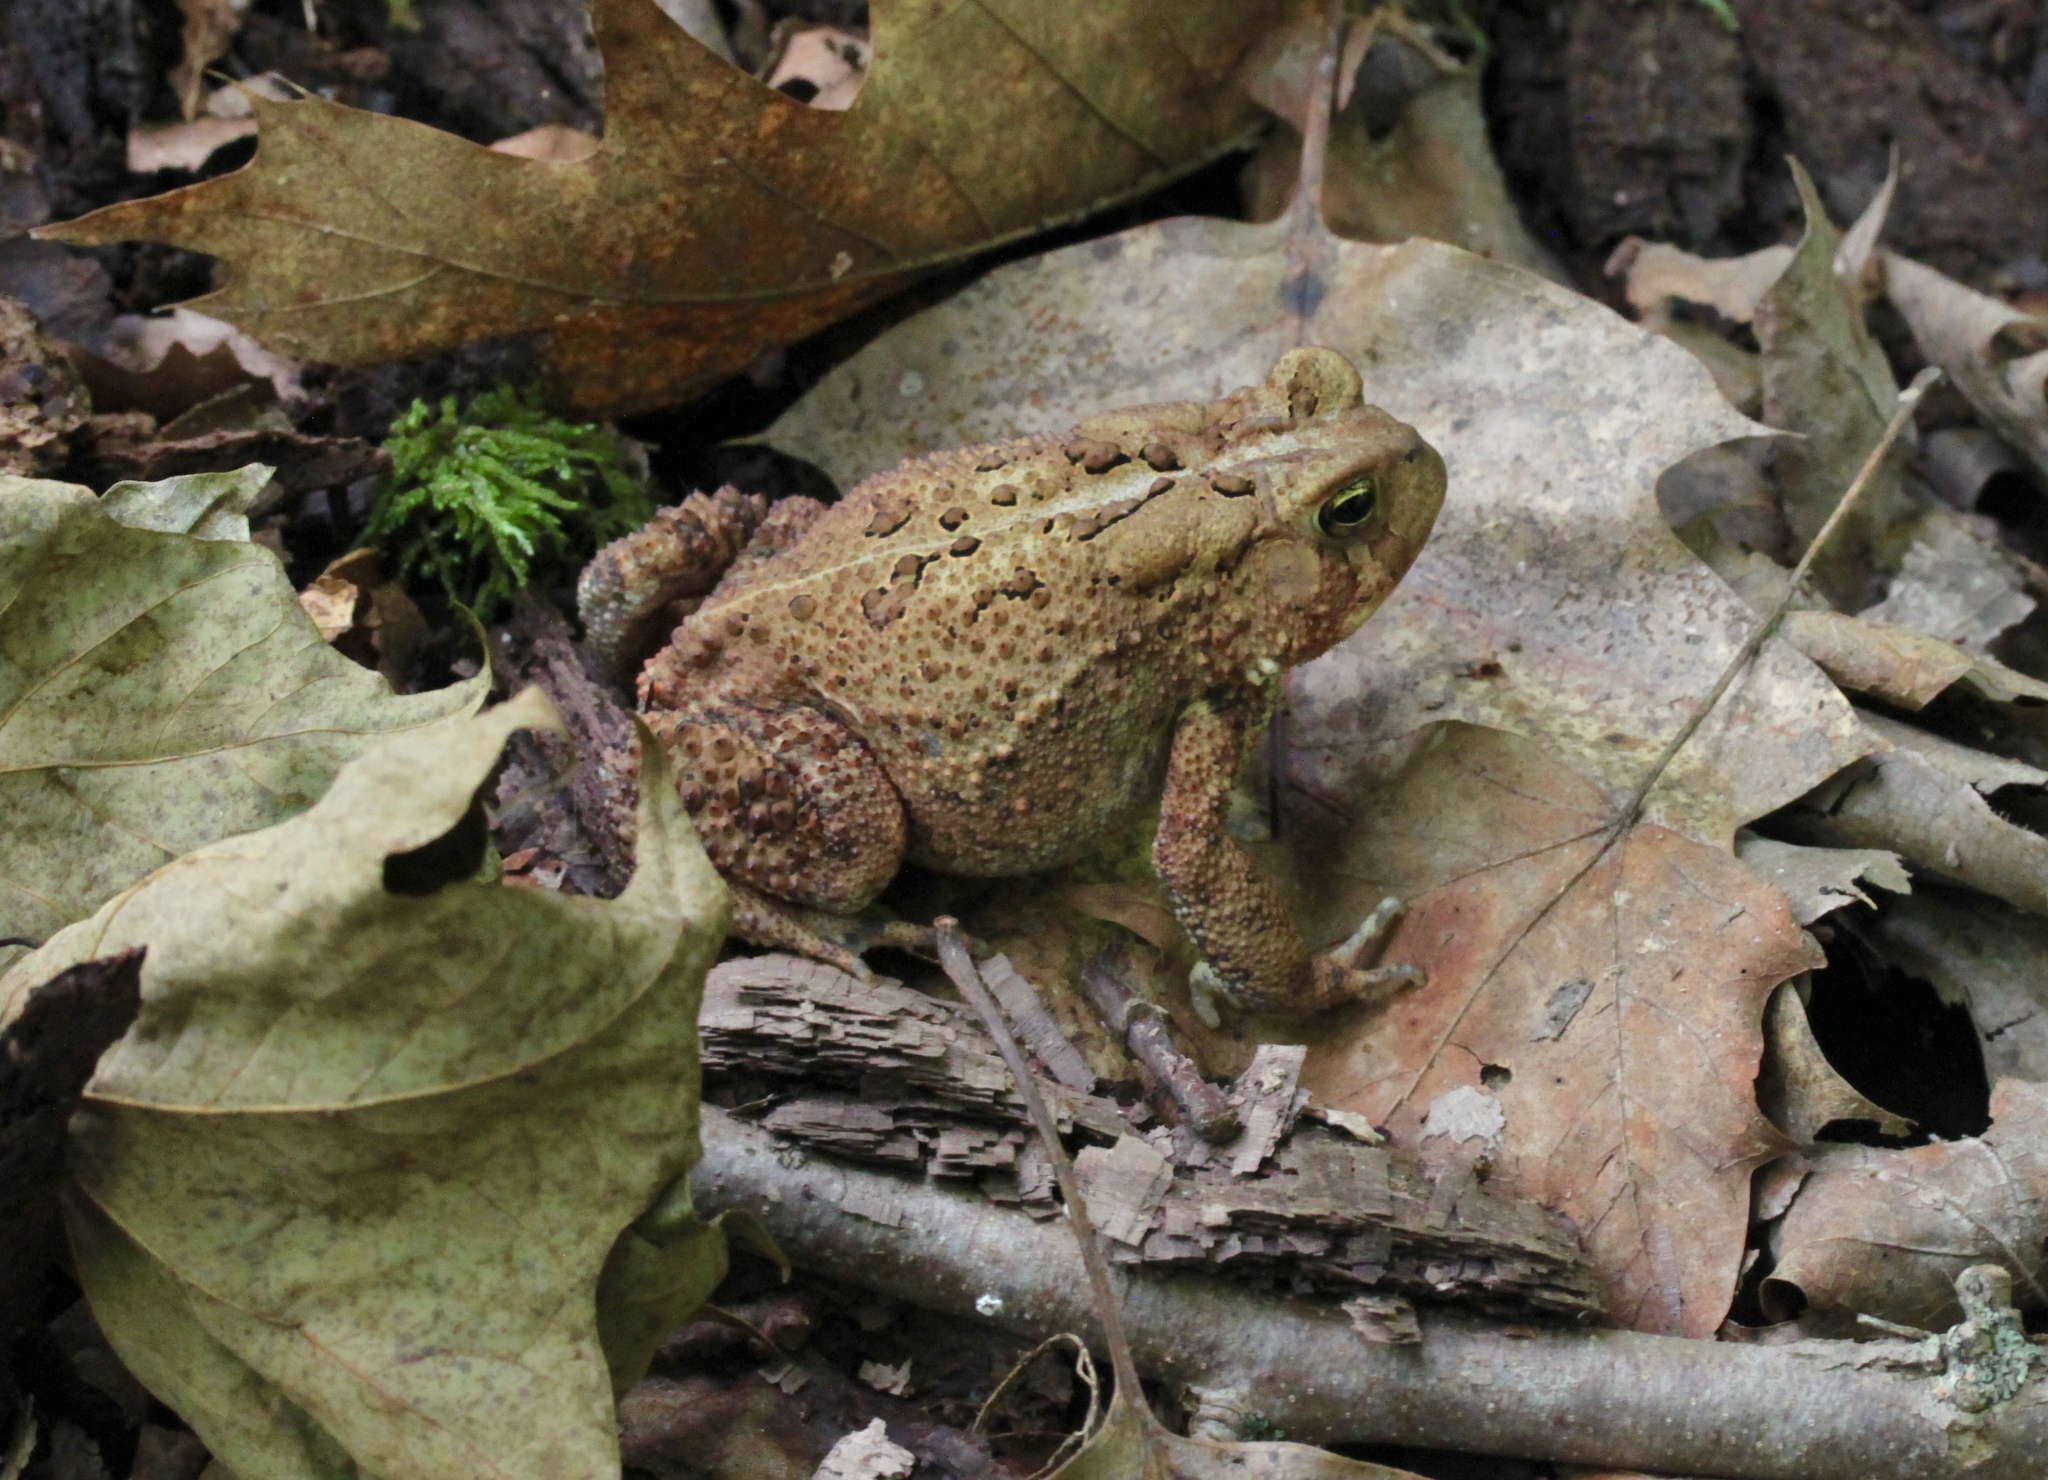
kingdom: Animalia
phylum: Chordata
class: Amphibia
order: Anura
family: Bufonidae
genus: Anaxyrus
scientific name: Anaxyrus americanus
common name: American toad
